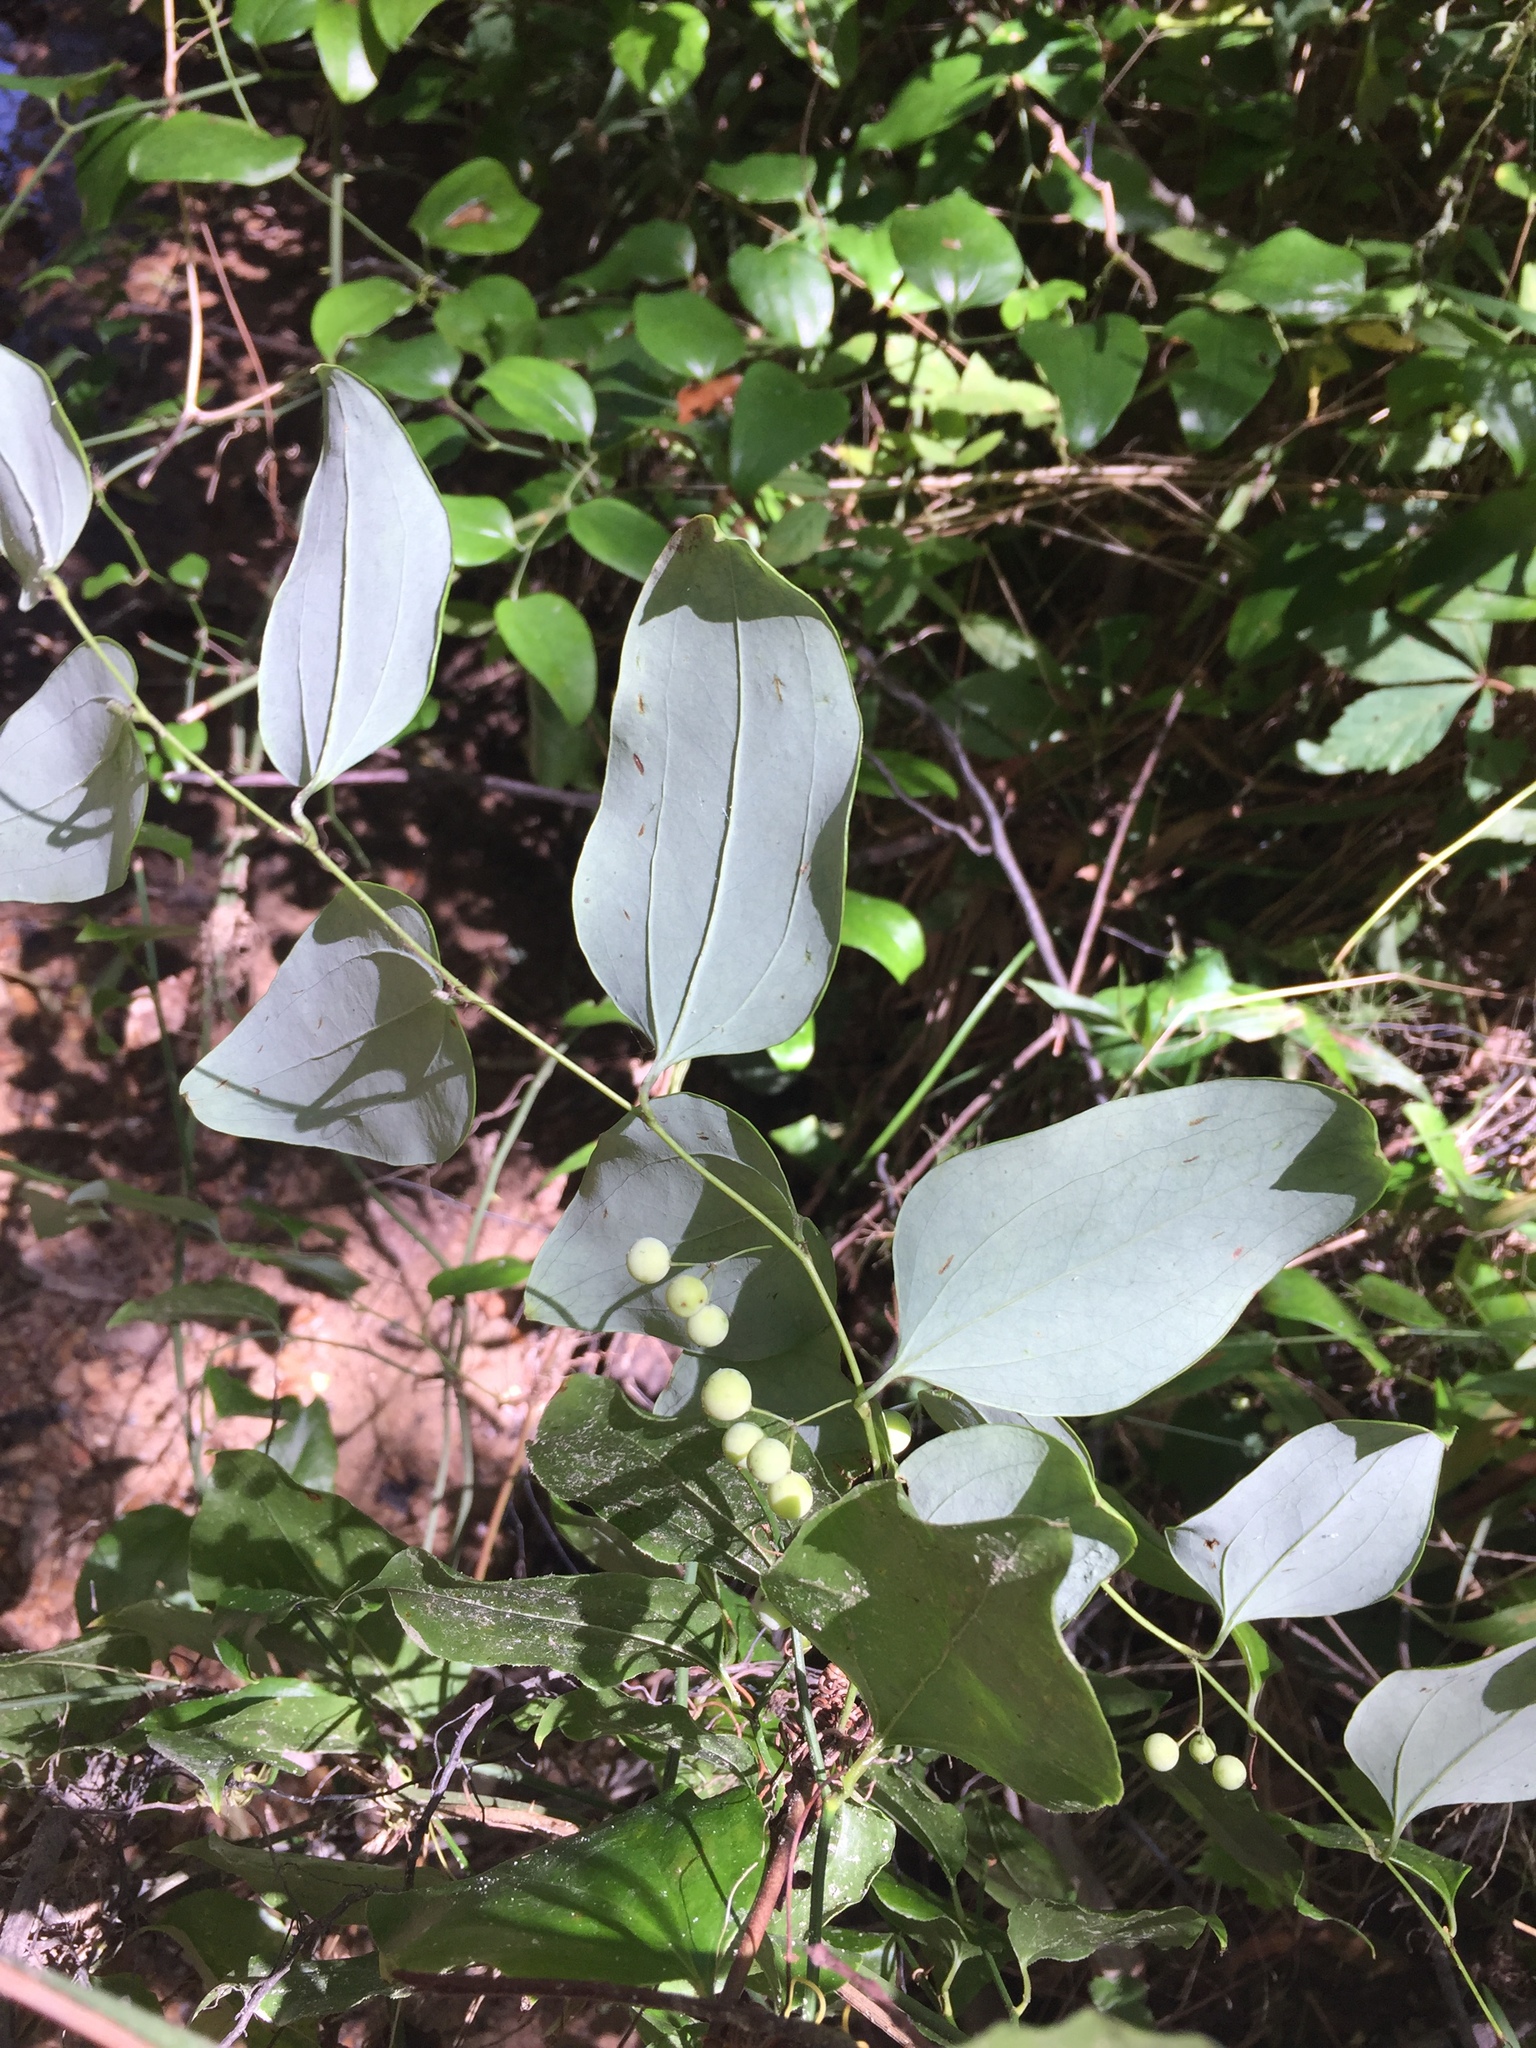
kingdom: Plantae
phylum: Tracheophyta
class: Liliopsida
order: Liliales
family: Smilacaceae
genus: Smilax
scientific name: Smilax glauca
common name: Cat greenbrier
